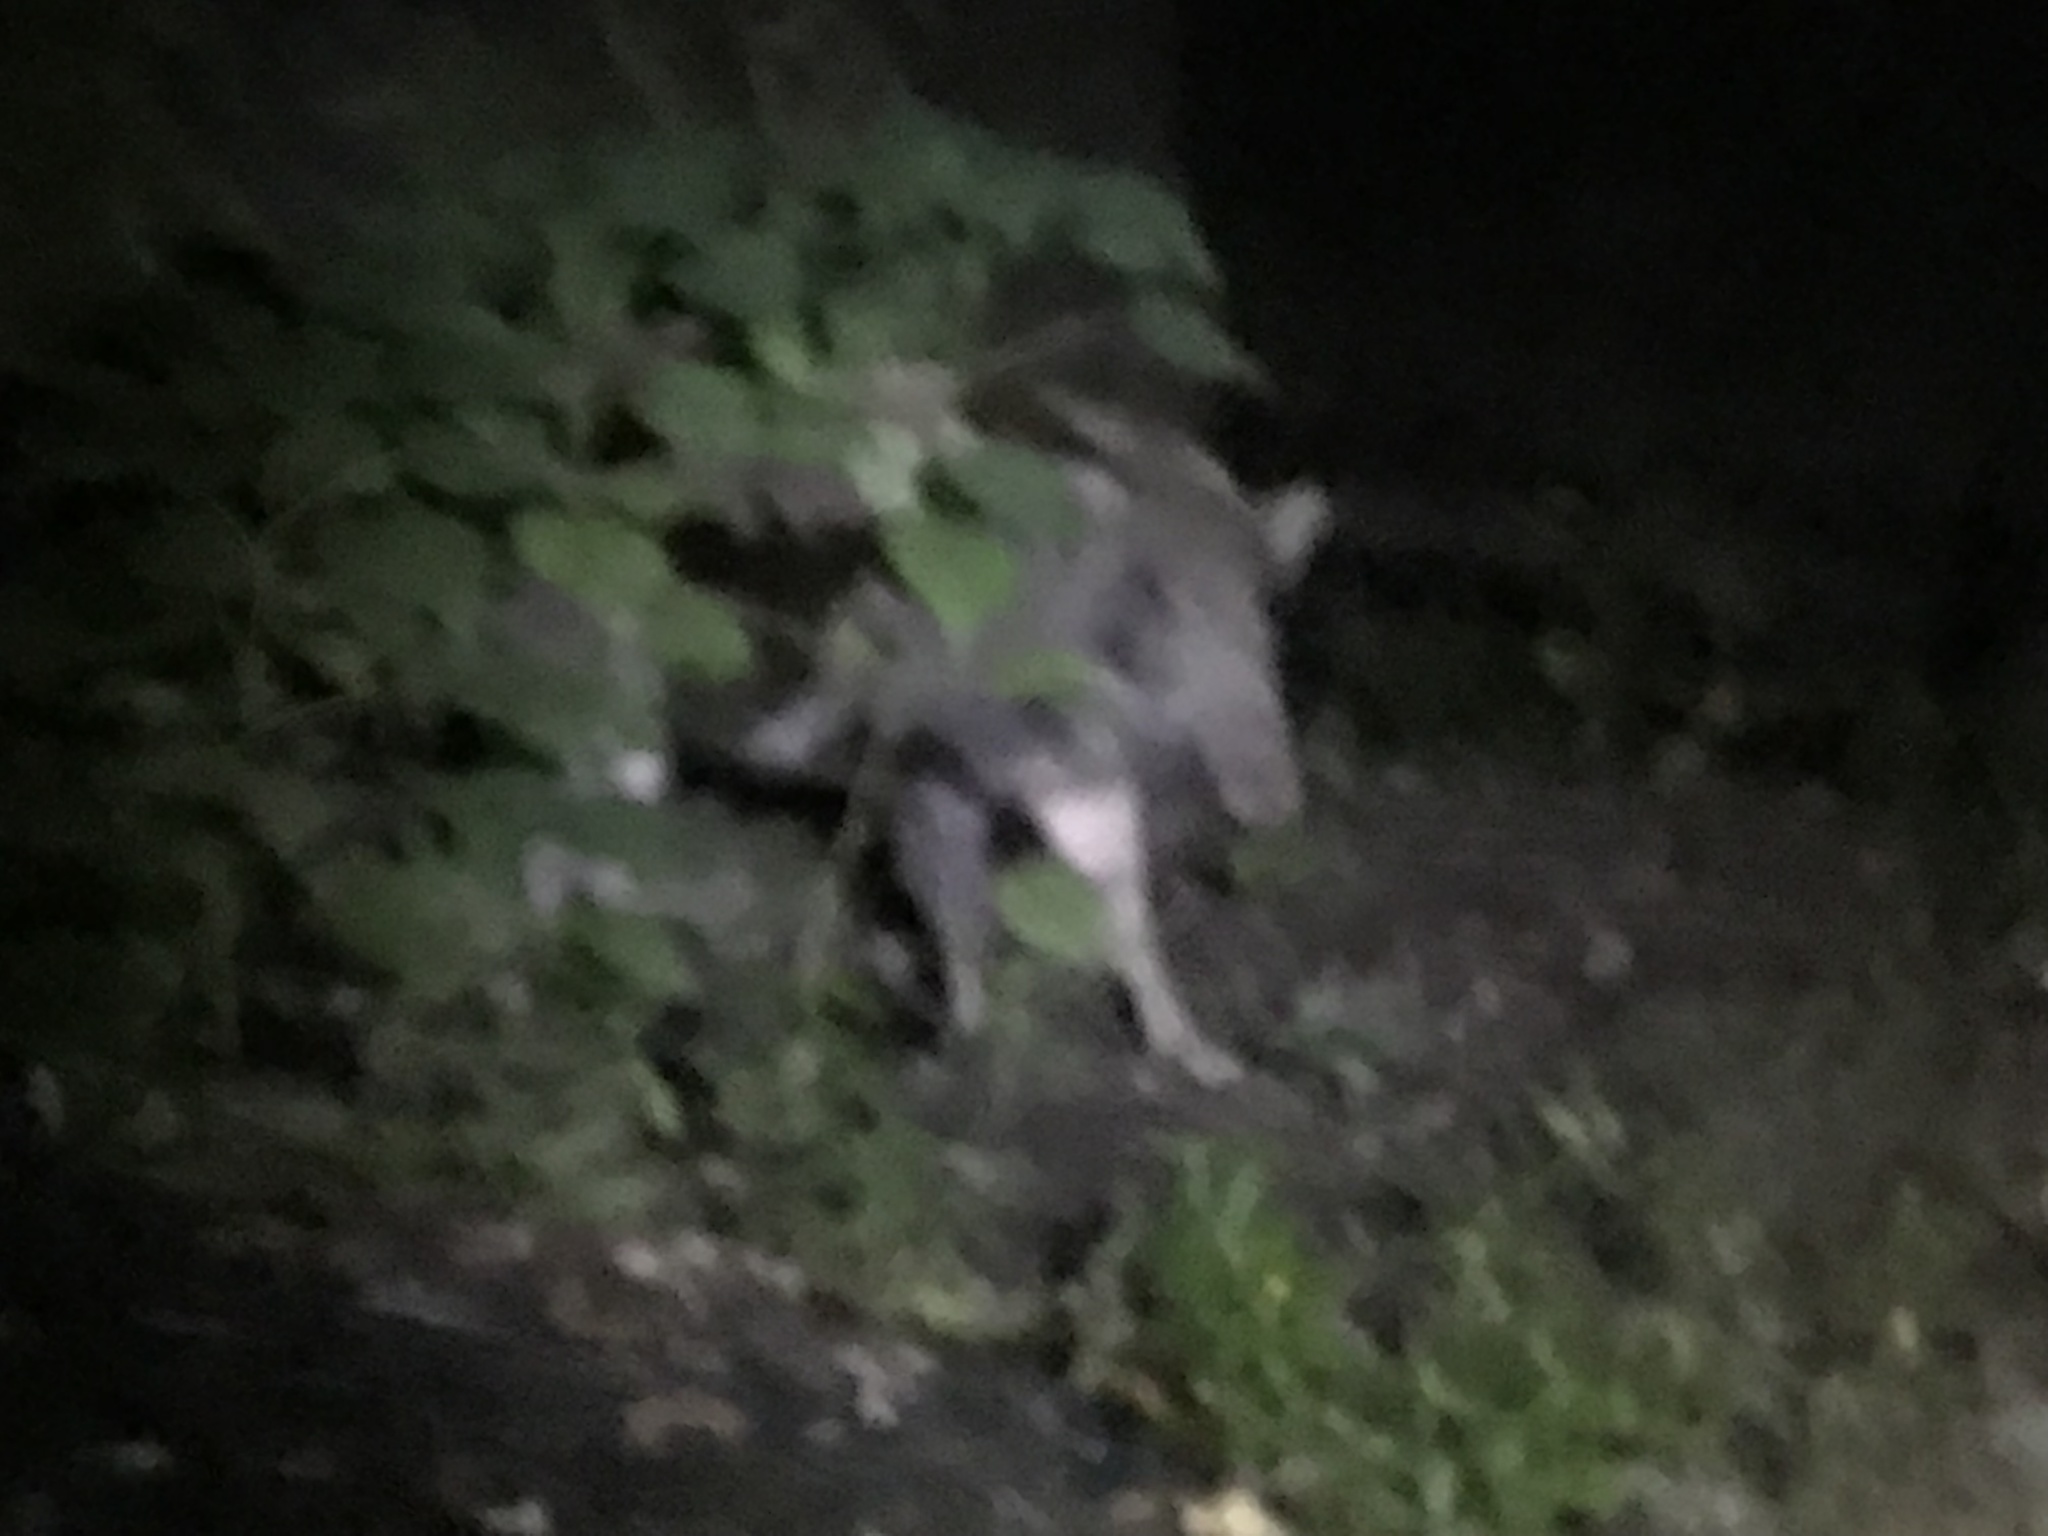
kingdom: Animalia
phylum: Chordata
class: Mammalia
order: Artiodactyla
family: Suidae
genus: Sus
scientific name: Sus scrofa
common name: Wild boar
